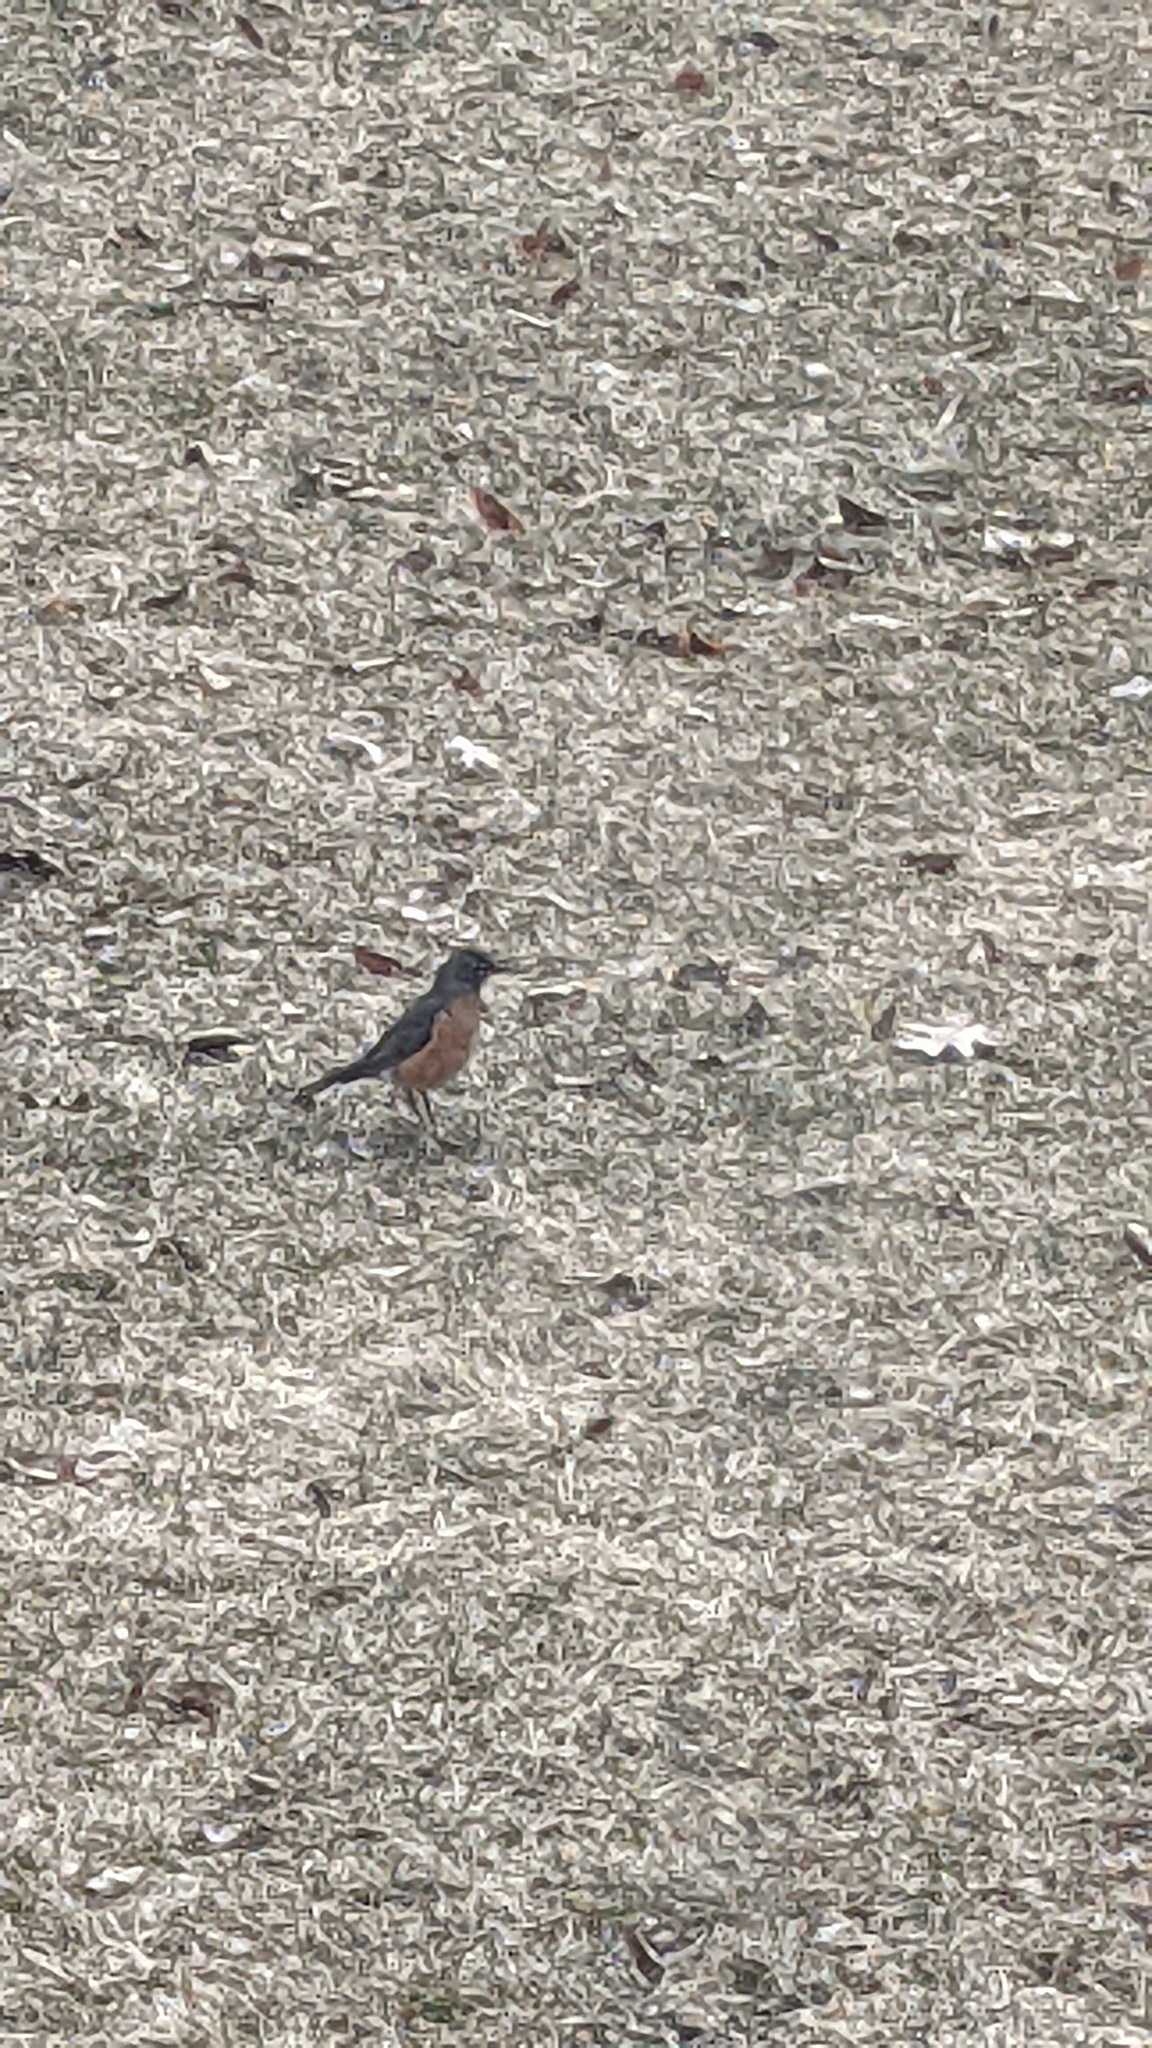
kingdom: Animalia
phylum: Chordata
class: Aves
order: Passeriformes
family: Turdidae
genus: Turdus
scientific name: Turdus migratorius
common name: American robin
